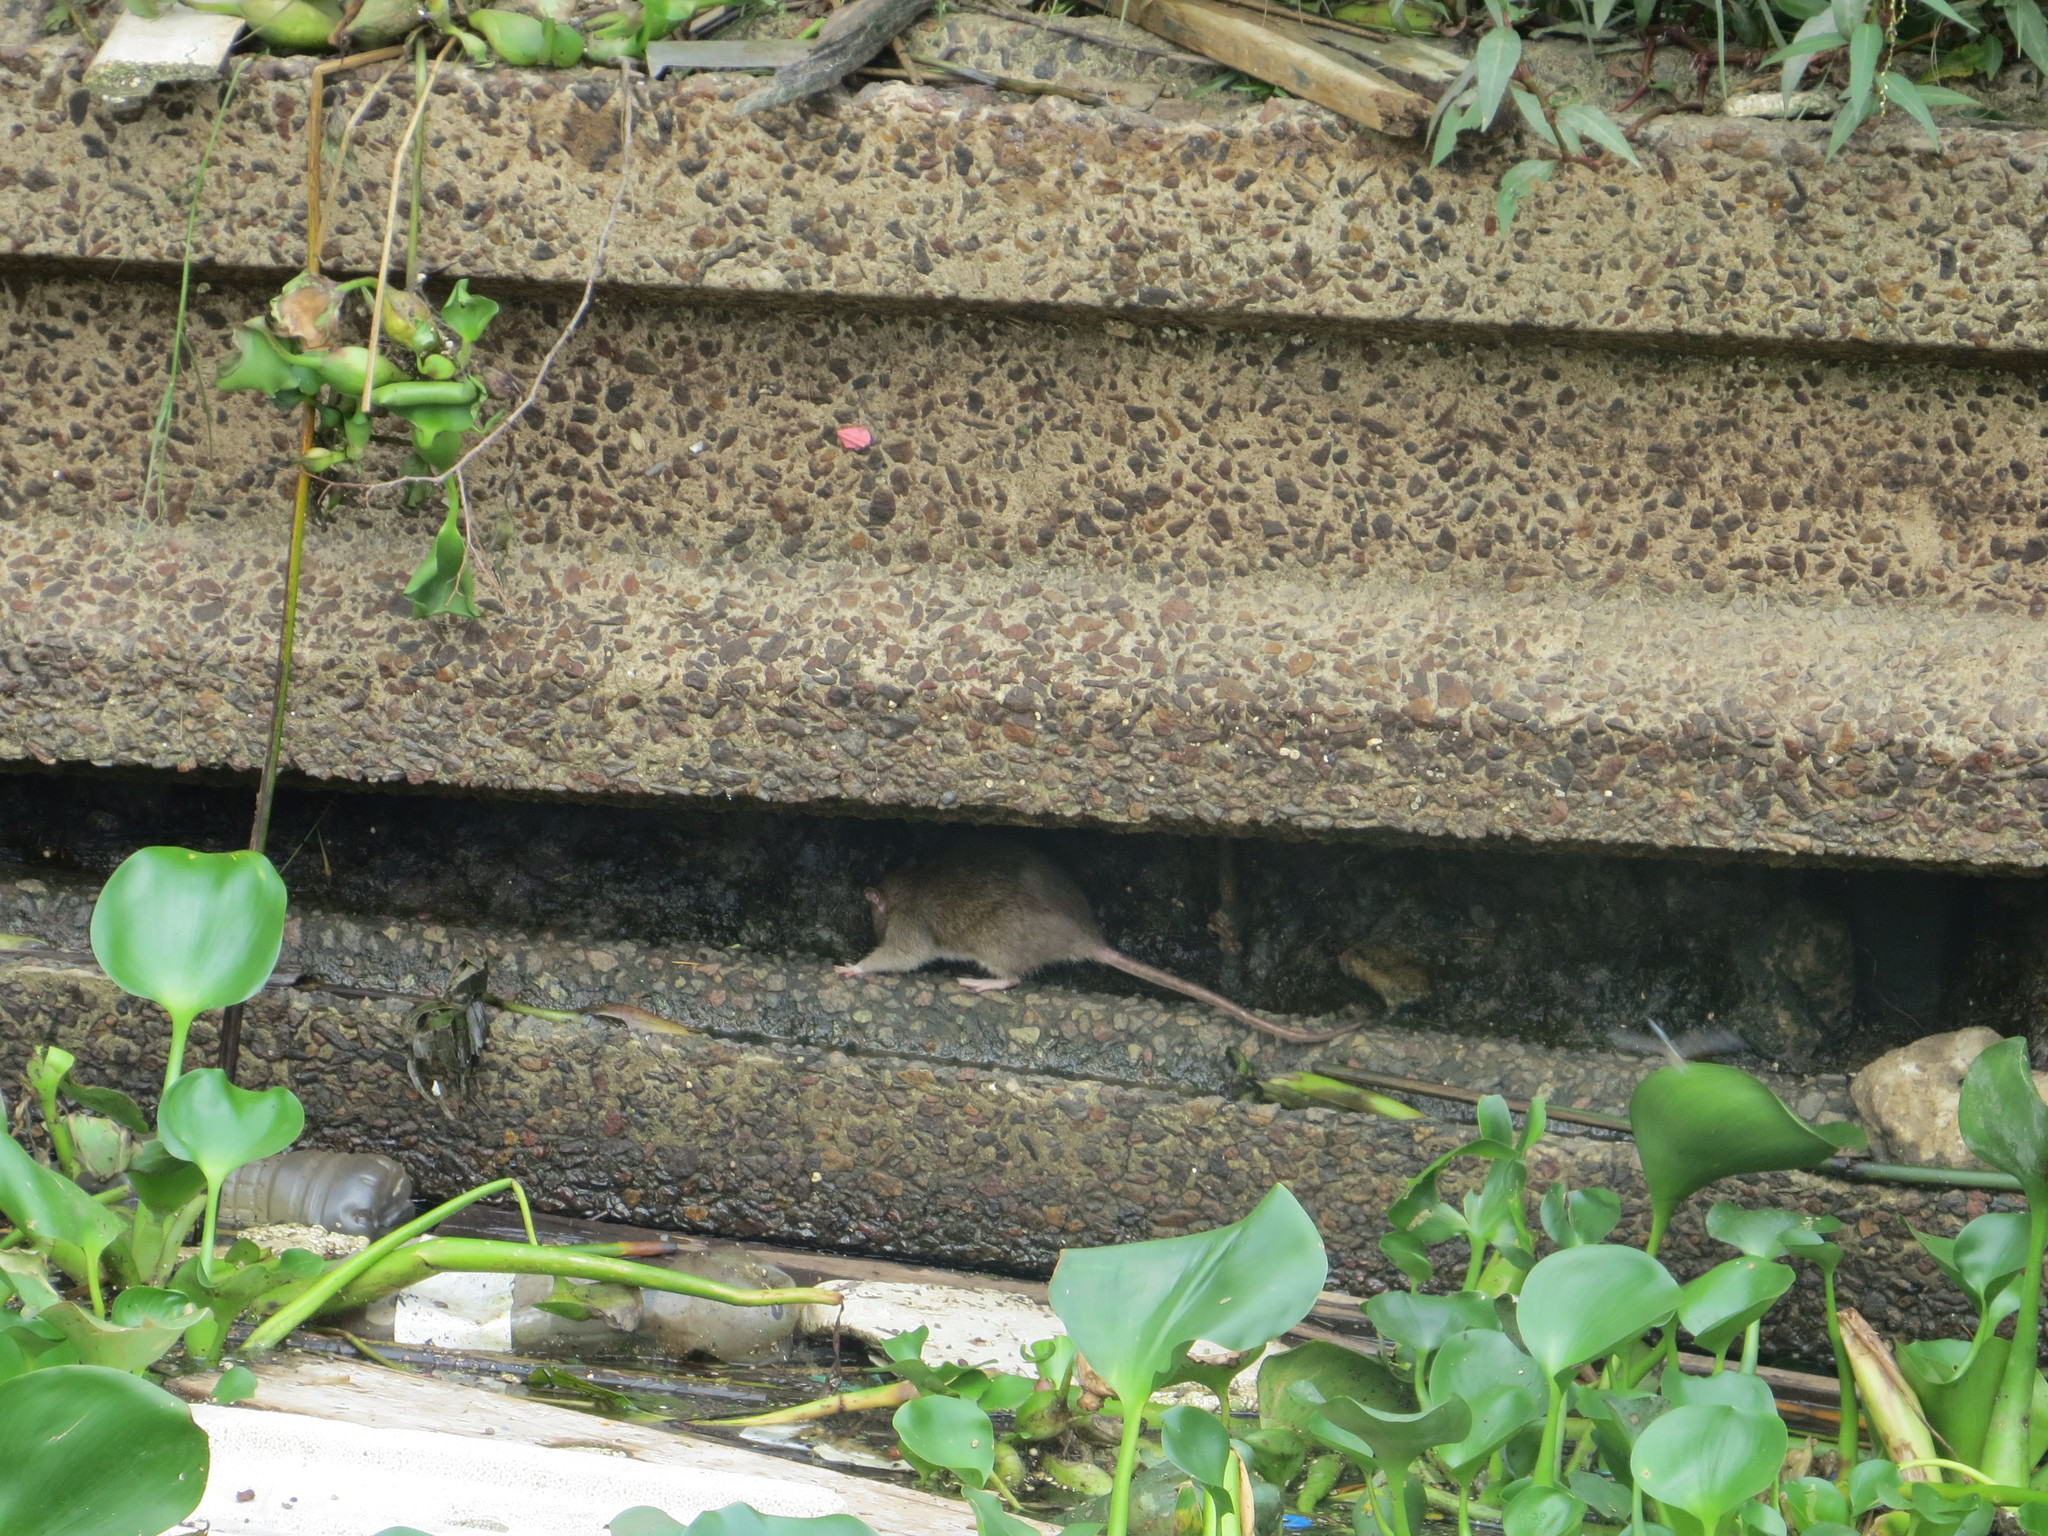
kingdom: Animalia
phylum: Chordata
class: Mammalia
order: Rodentia
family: Muridae
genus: Rattus
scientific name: Rattus norvegicus
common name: Brown rat
